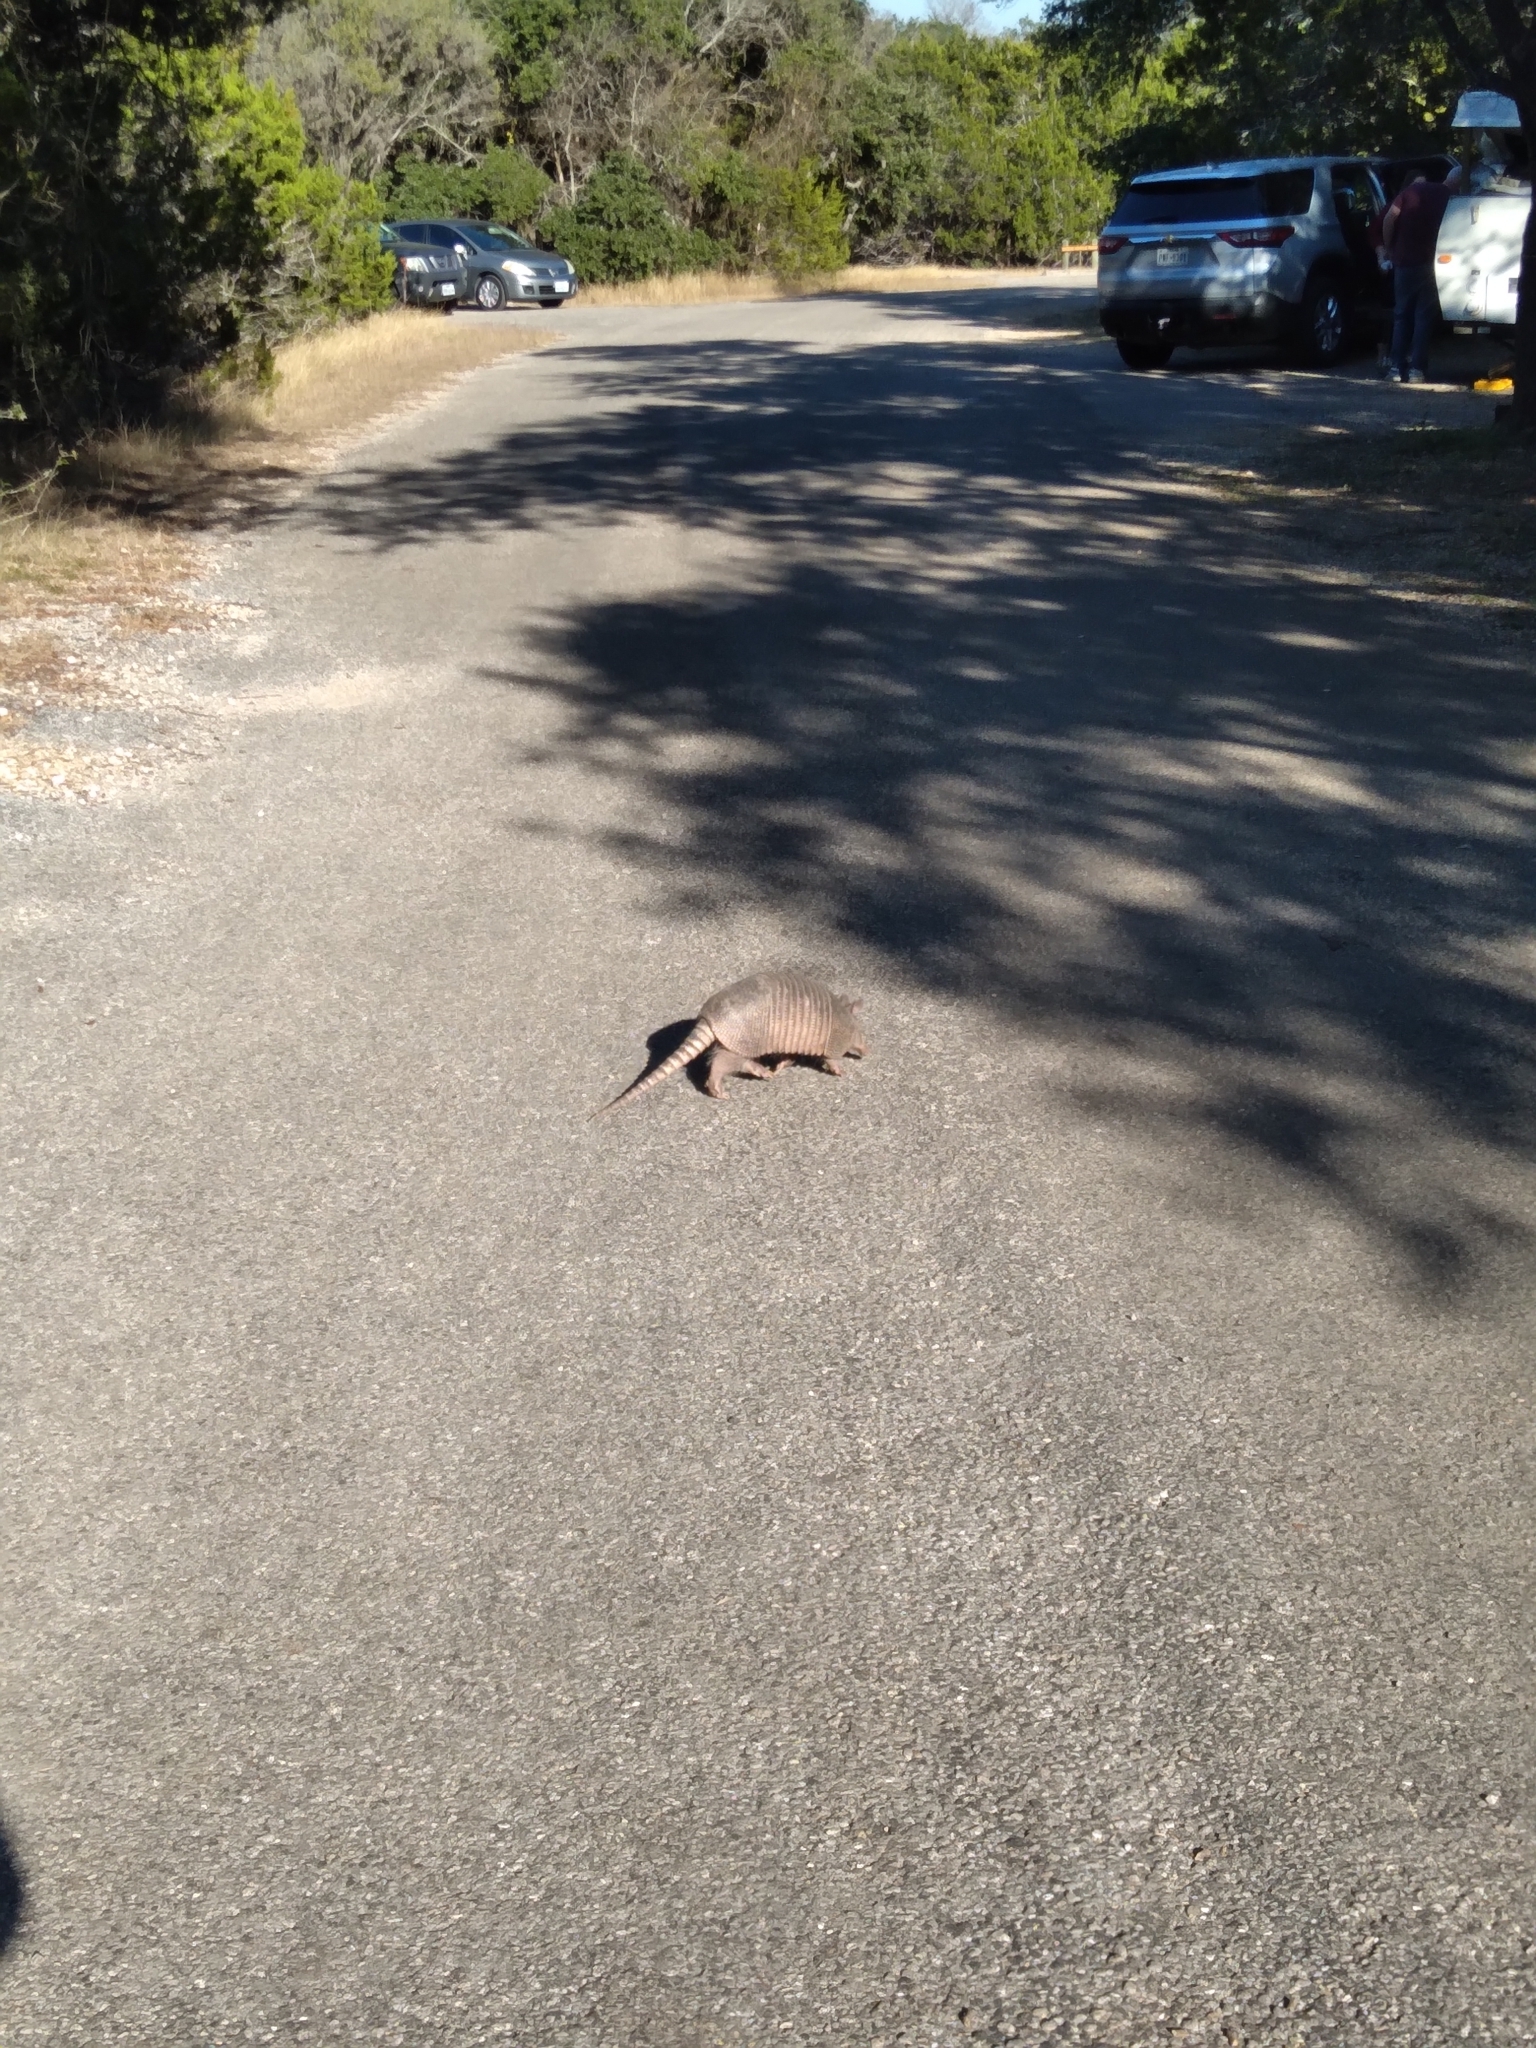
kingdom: Animalia
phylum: Chordata
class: Mammalia
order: Cingulata
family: Dasypodidae
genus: Dasypus
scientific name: Dasypus novemcinctus
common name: Nine-banded armadillo
